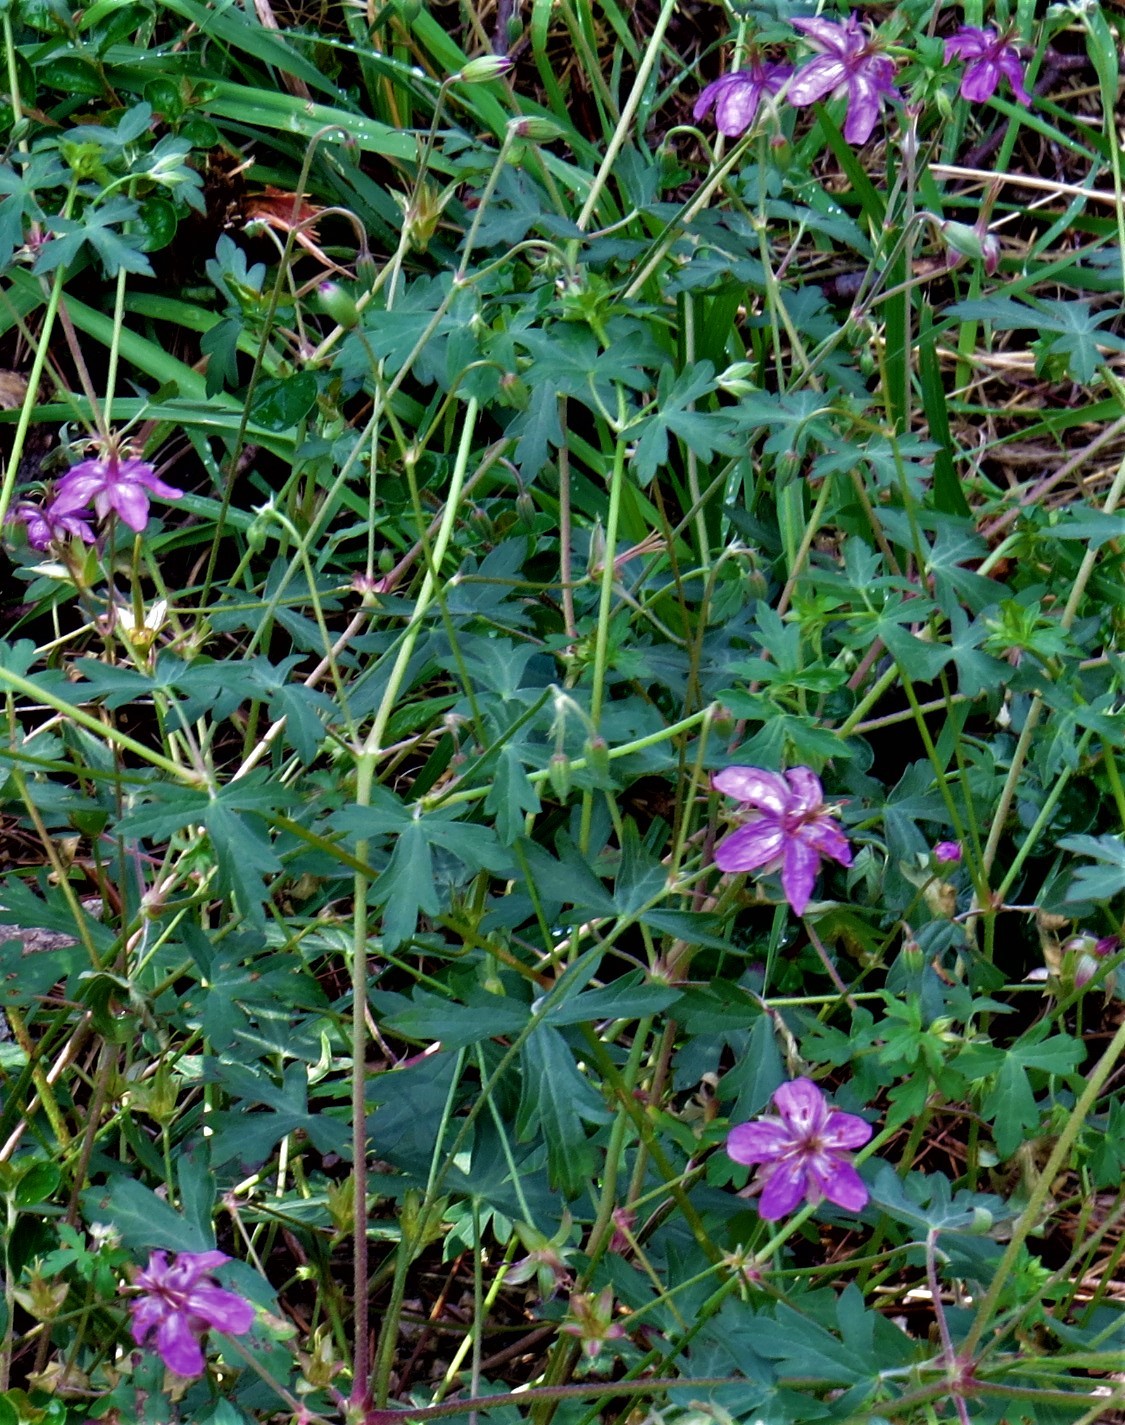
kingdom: Plantae
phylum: Tracheophyta
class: Magnoliopsida
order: Geraniales
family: Geraniaceae
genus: Geranium
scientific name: Geranium caespitosum
